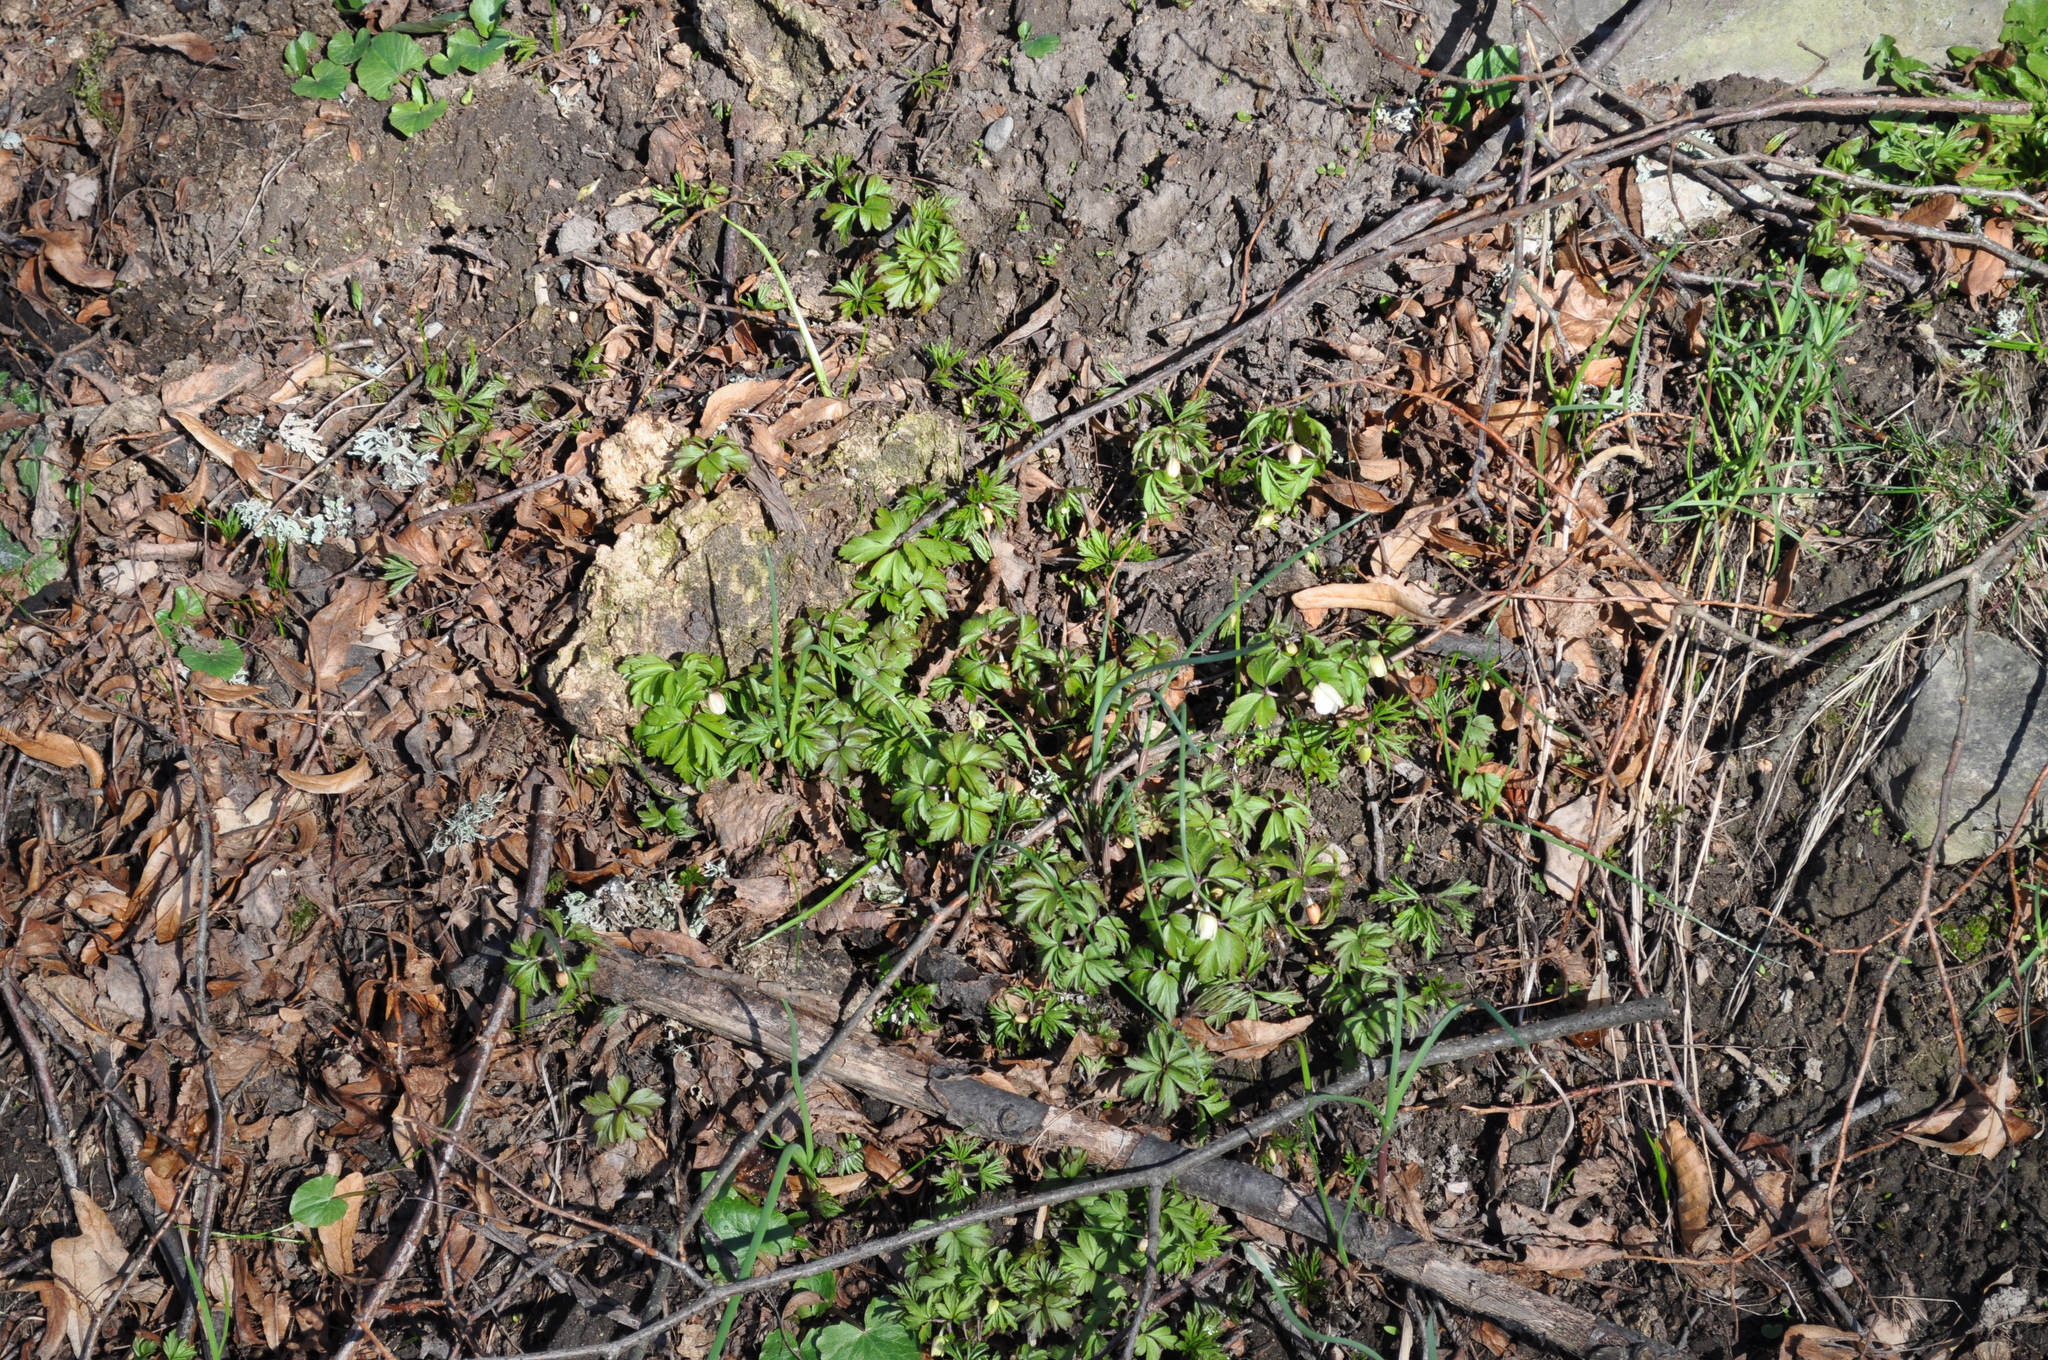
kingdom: Plantae
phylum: Tracheophyta
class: Magnoliopsida
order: Ranunculales
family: Ranunculaceae
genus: Anemone
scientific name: Anemone nemorosa
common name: Wood anemone
